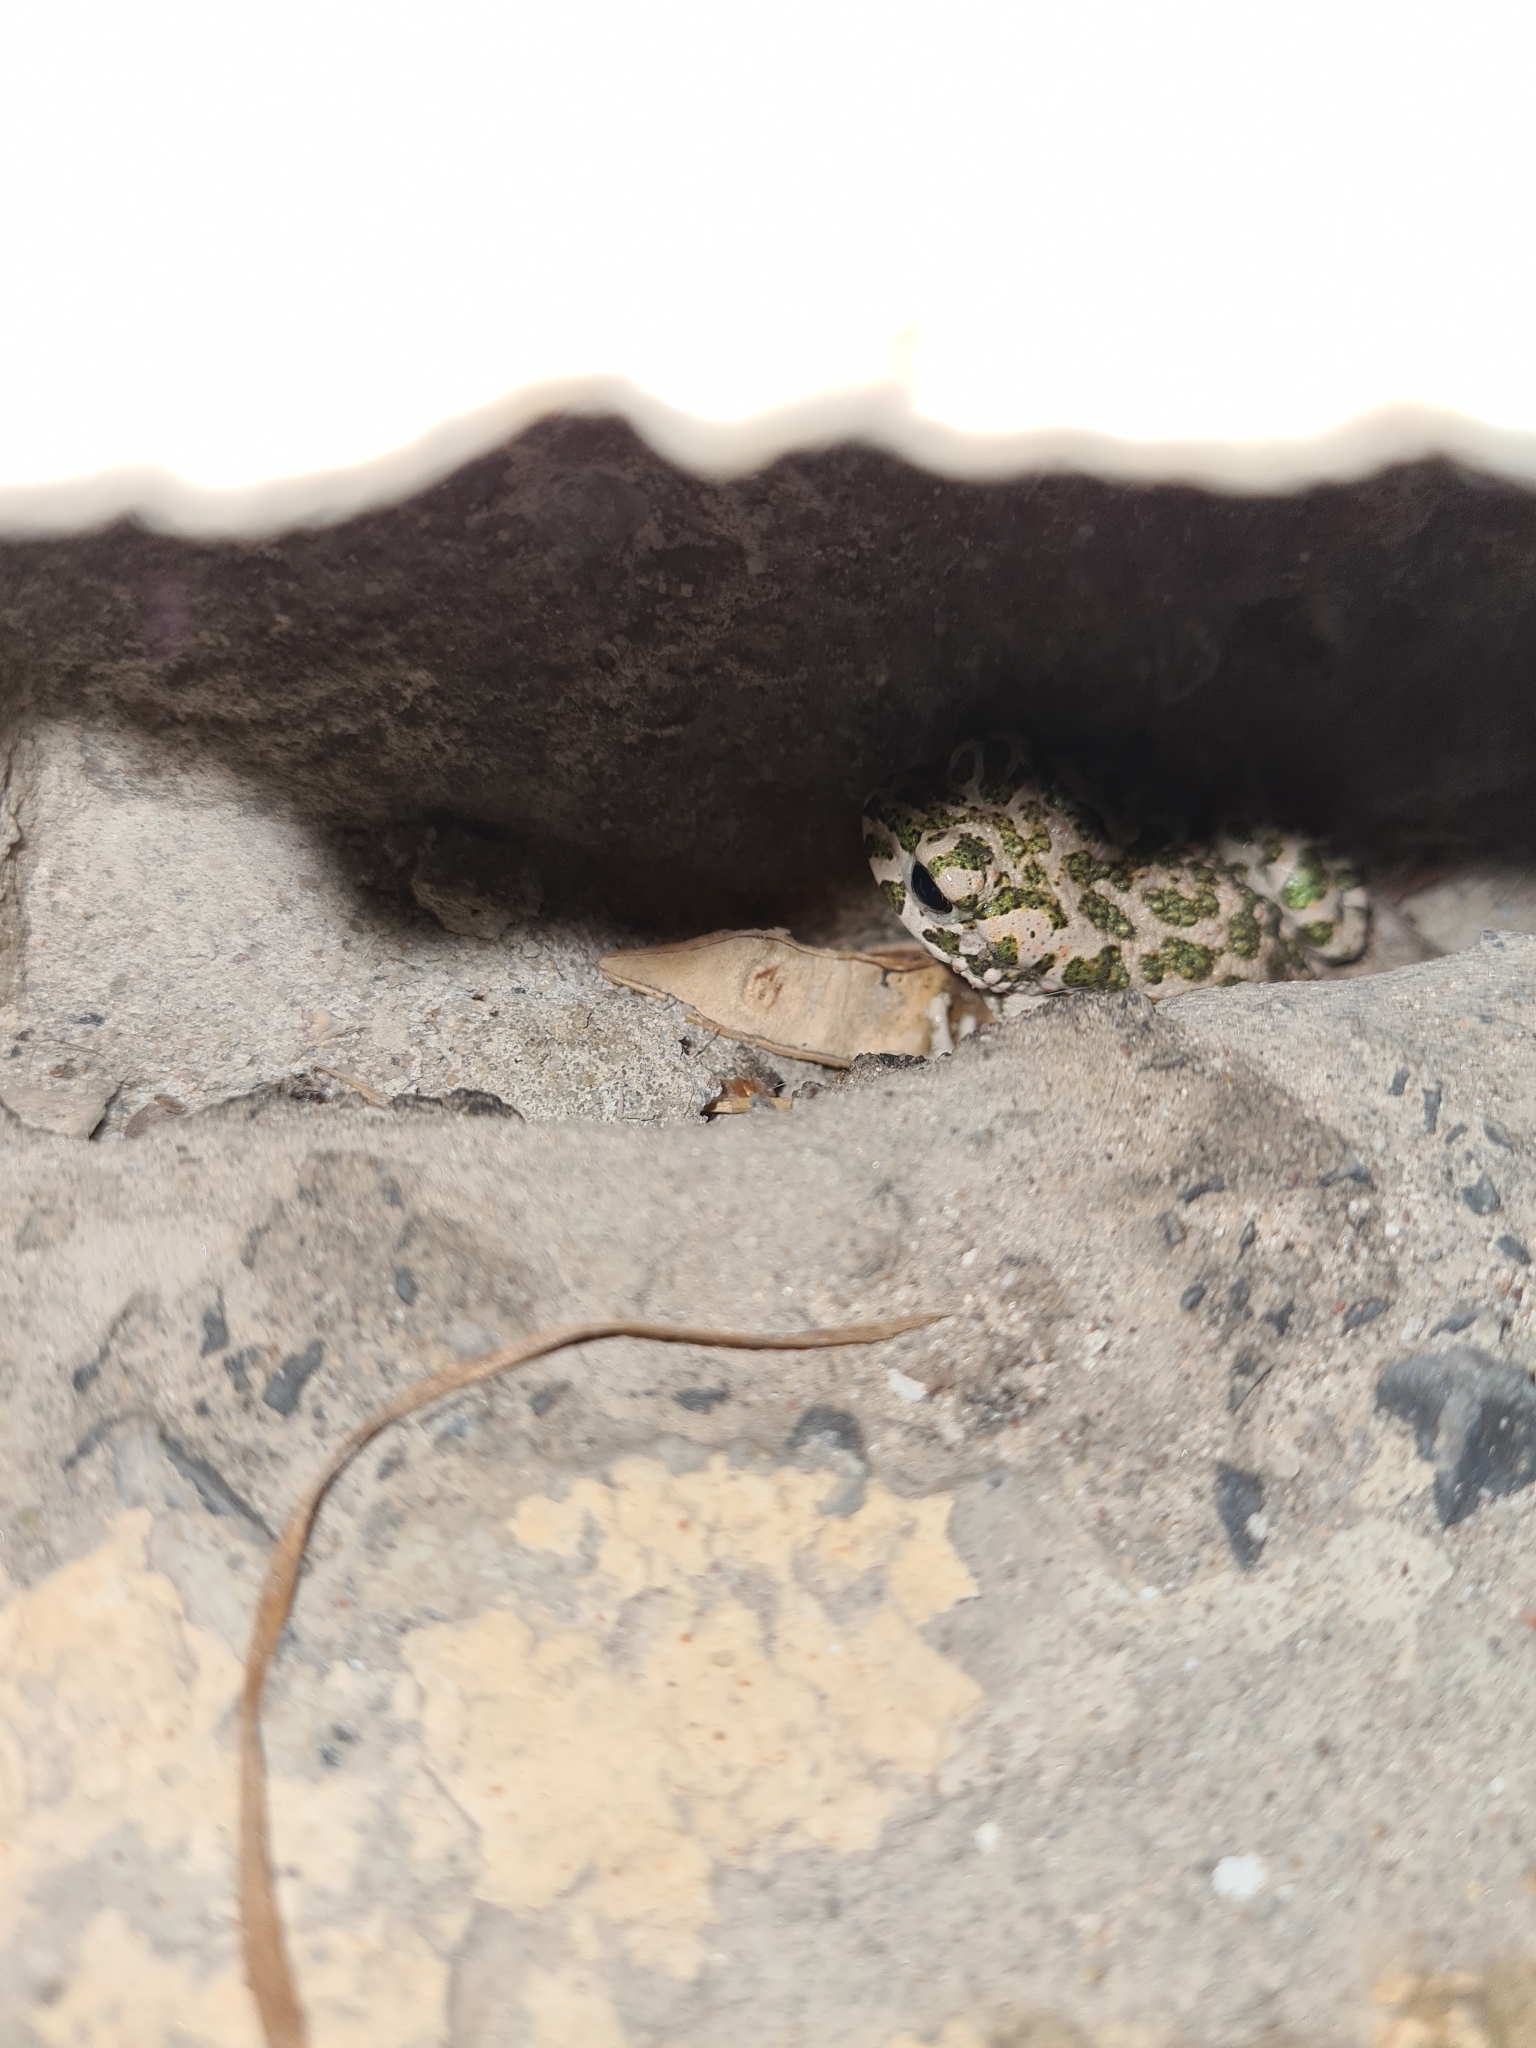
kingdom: Animalia
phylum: Chordata
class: Amphibia
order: Anura
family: Bufonidae
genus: Bufotes
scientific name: Bufotes viridis
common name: European green toad
